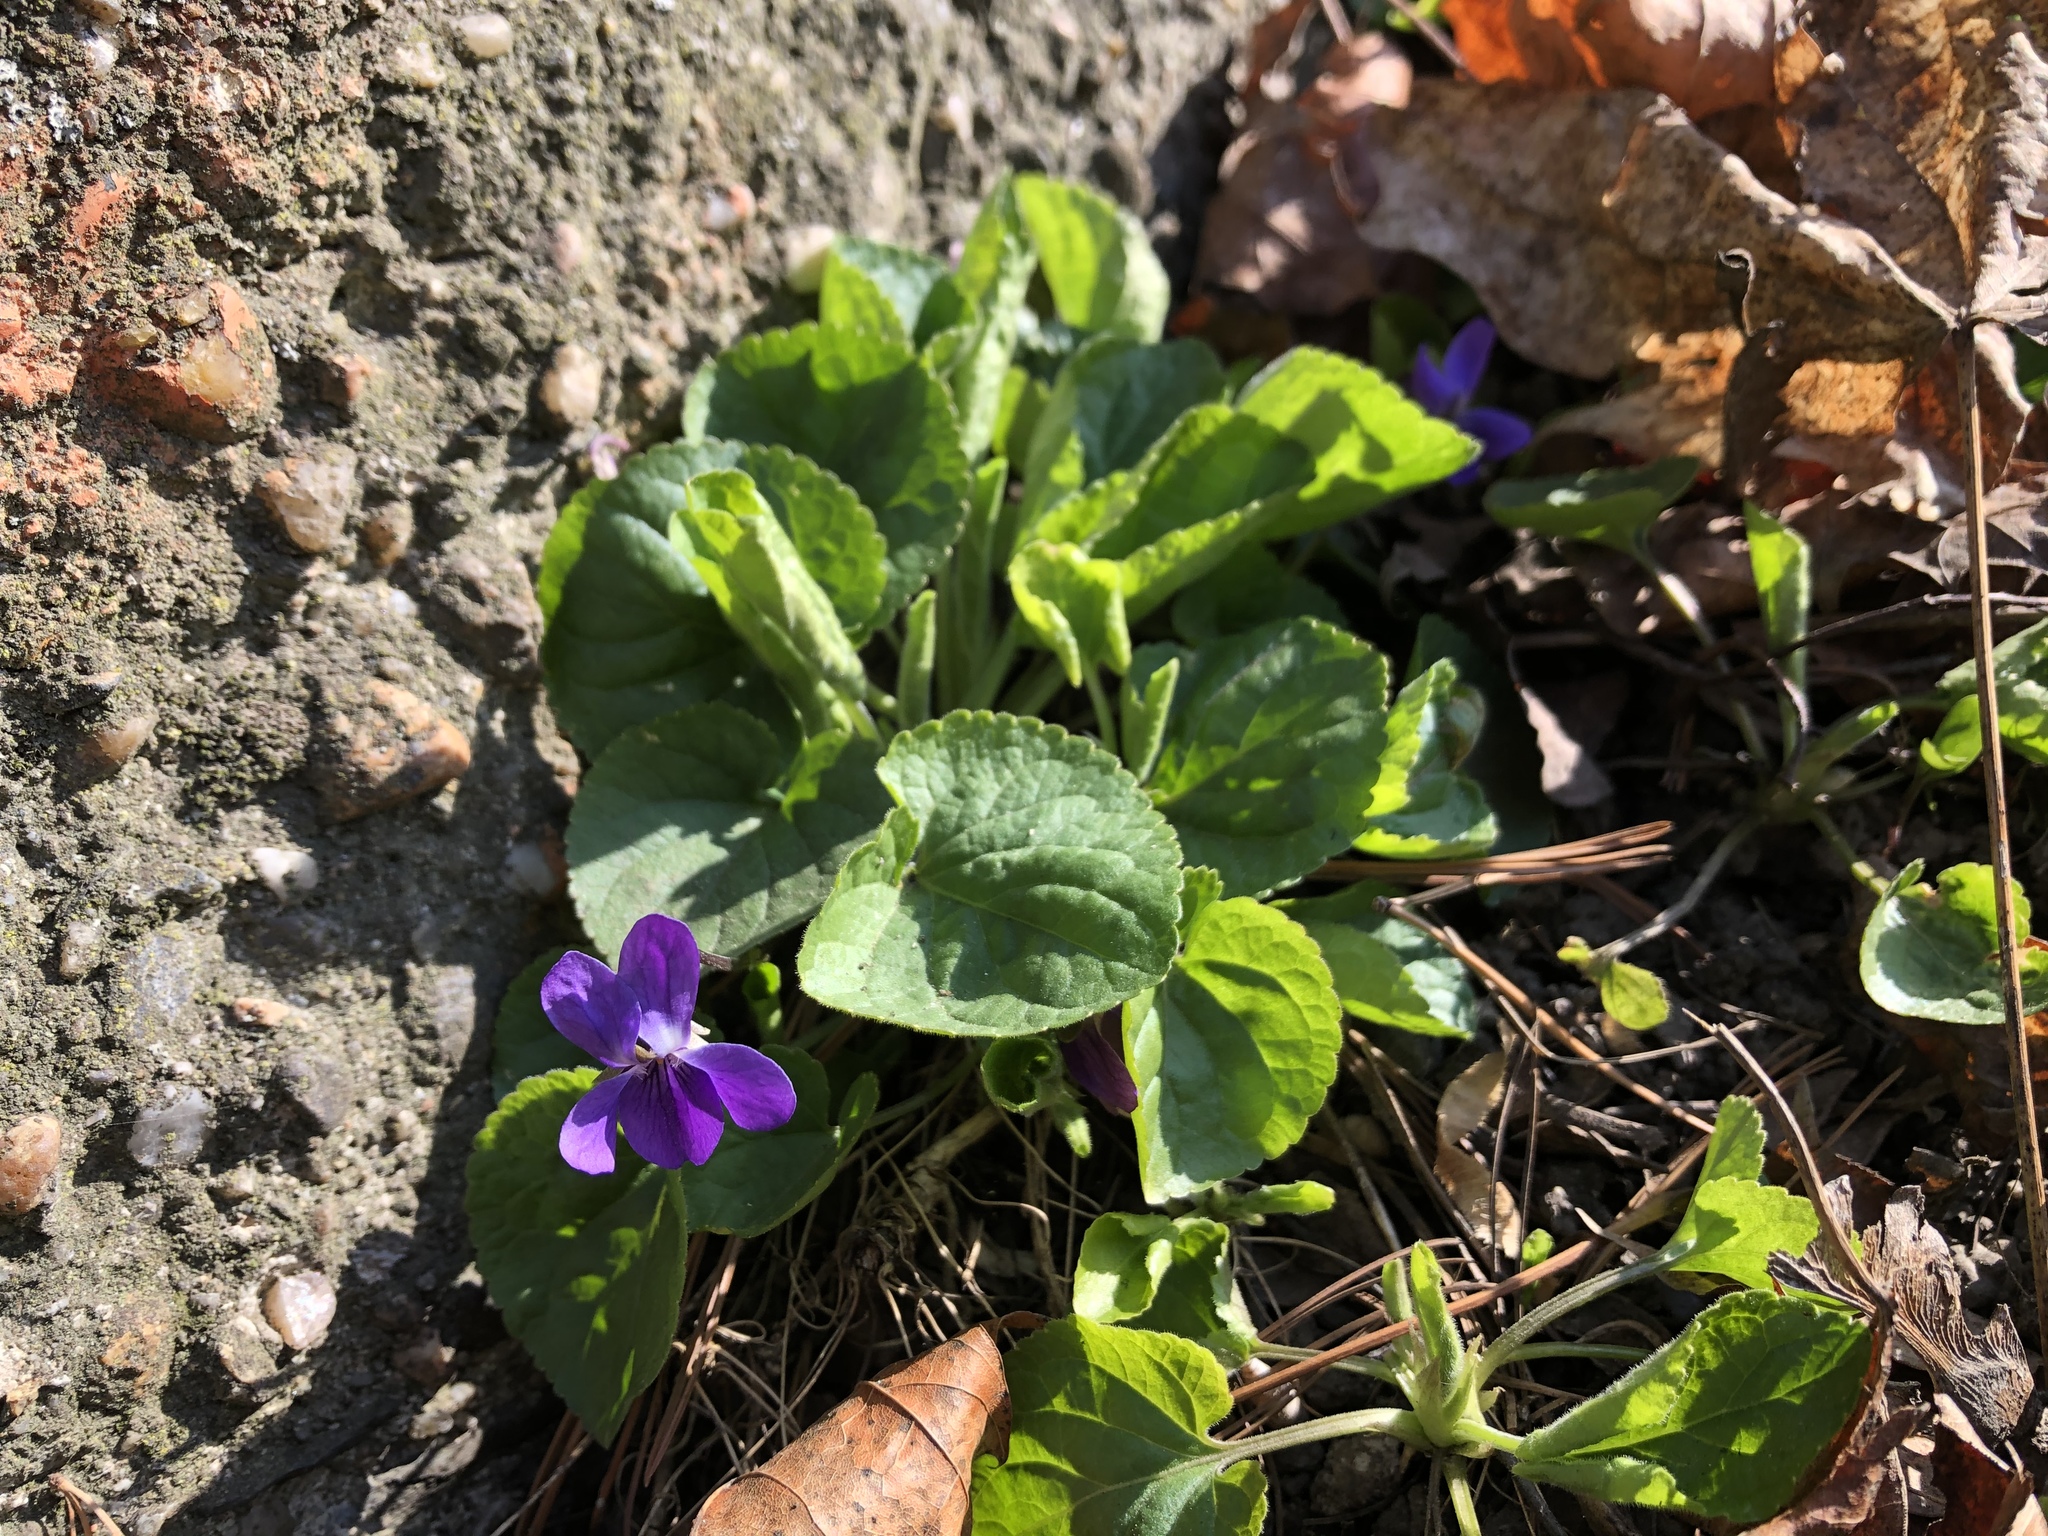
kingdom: Plantae
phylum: Tracheophyta
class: Magnoliopsida
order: Malpighiales
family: Violaceae
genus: Viola
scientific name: Viola odorata
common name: Sweet violet
